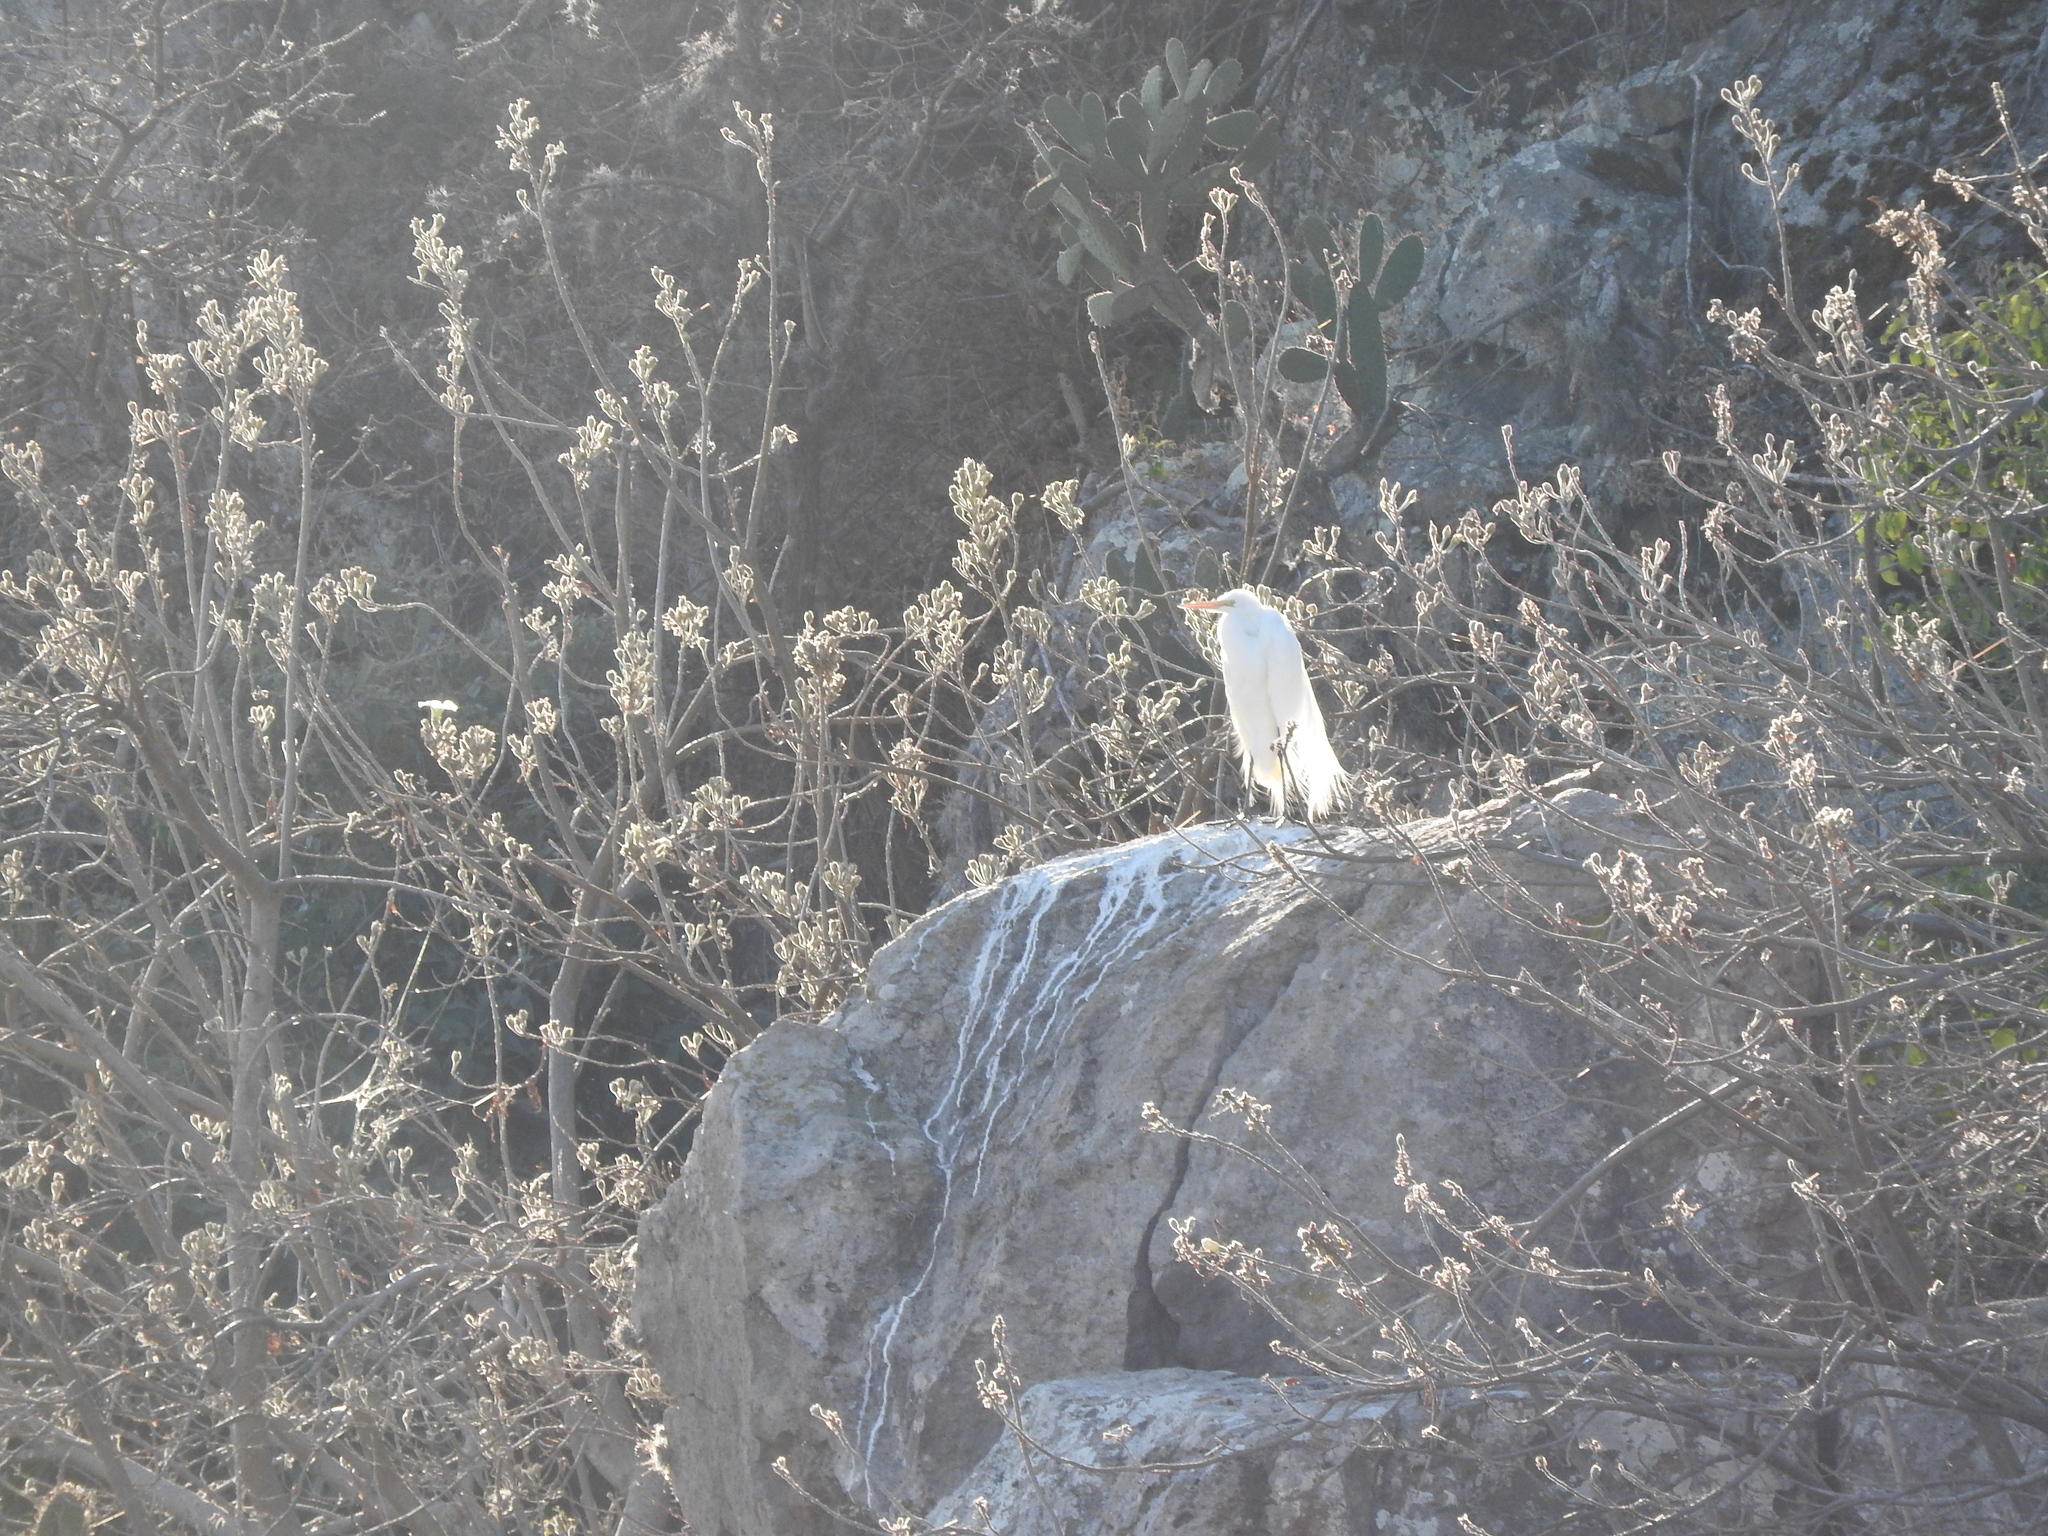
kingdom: Animalia
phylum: Chordata
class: Aves
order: Pelecaniformes
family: Ardeidae
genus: Ardea
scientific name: Ardea alba
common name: Great egret
